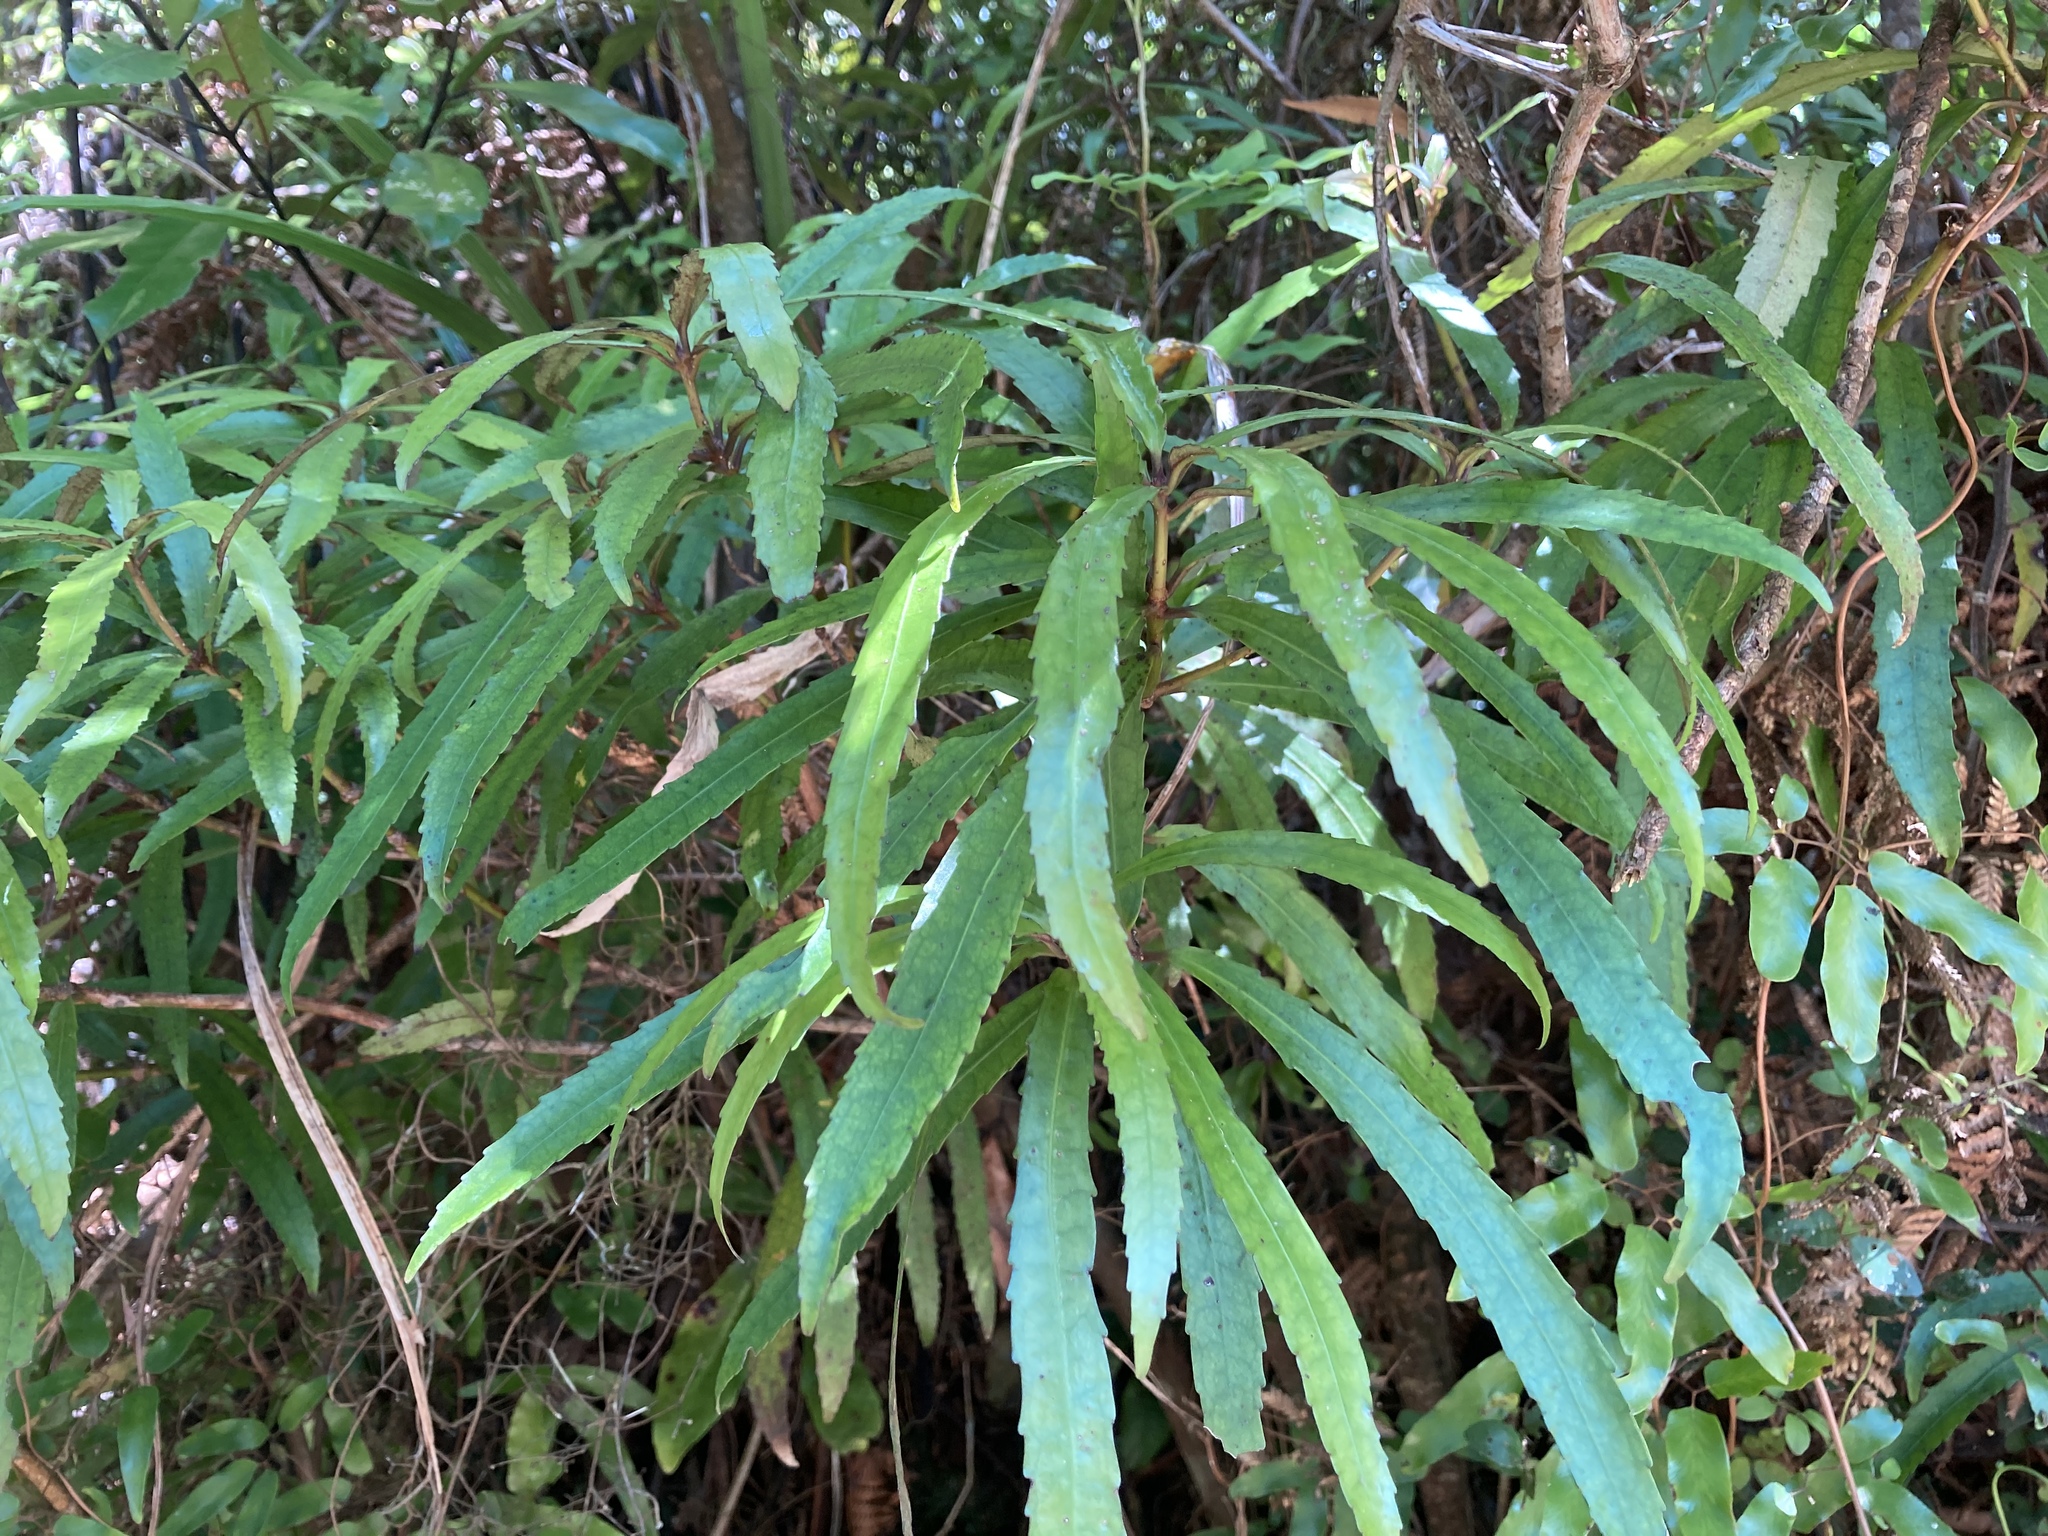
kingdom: Plantae
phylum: Tracheophyta
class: Magnoliopsida
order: Crossosomatales
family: Ixerbaceae
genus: Ixerba
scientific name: Ixerba brexioides
